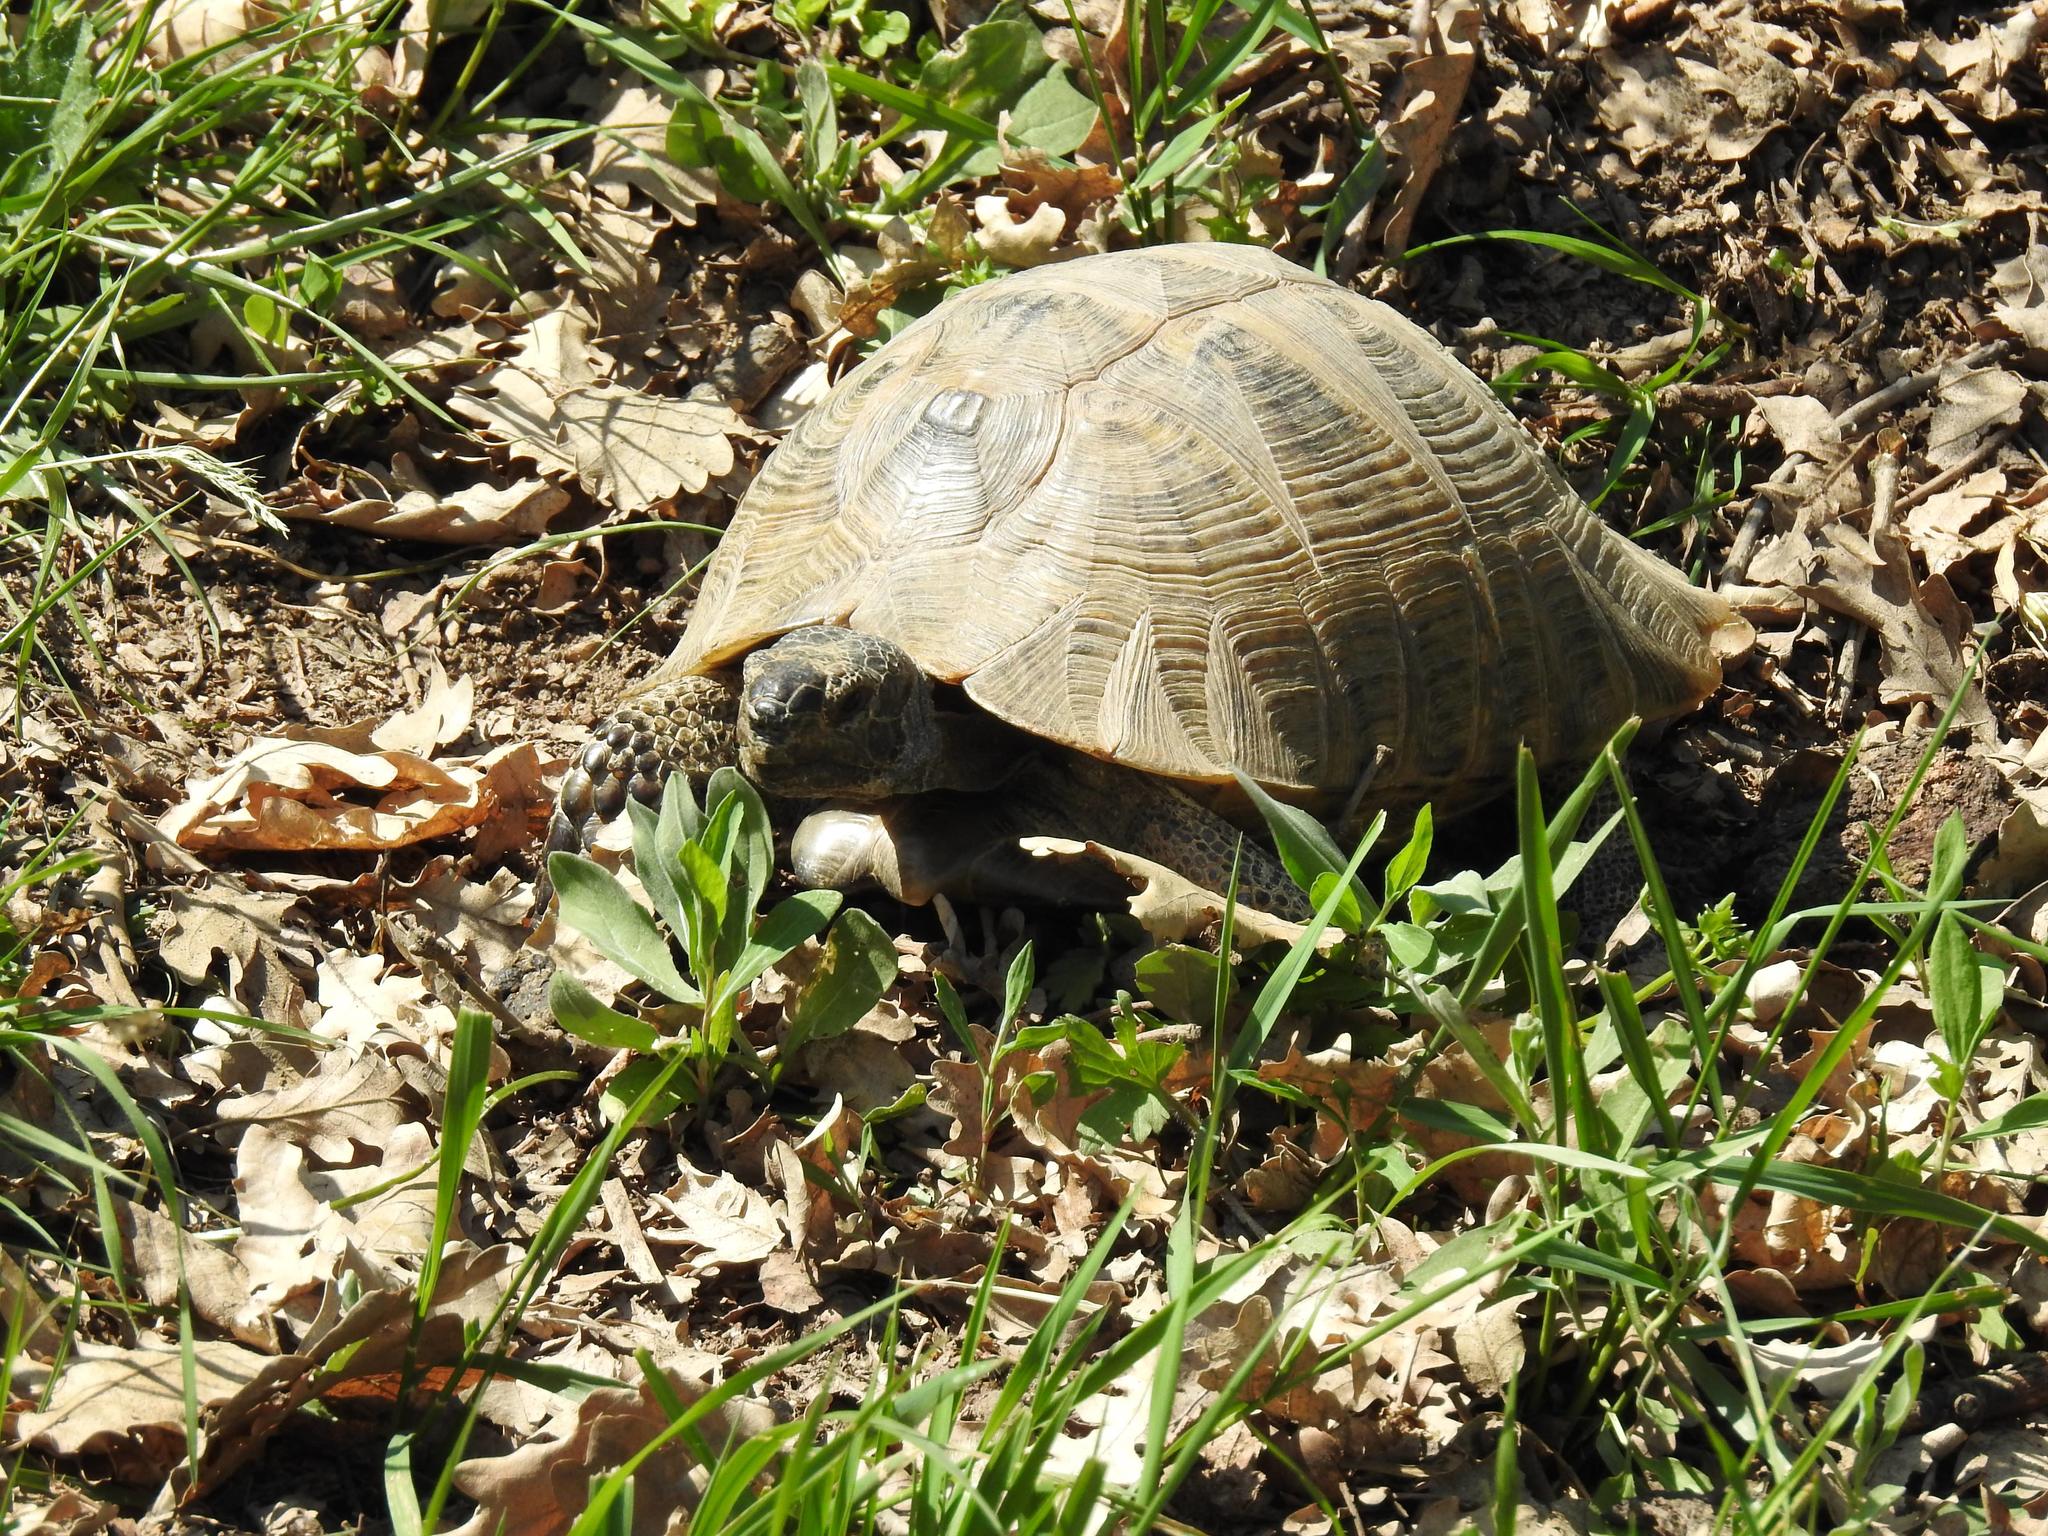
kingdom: Animalia
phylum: Chordata
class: Testudines
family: Testudinidae
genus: Testudo
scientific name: Testudo graeca
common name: Common tortoise
